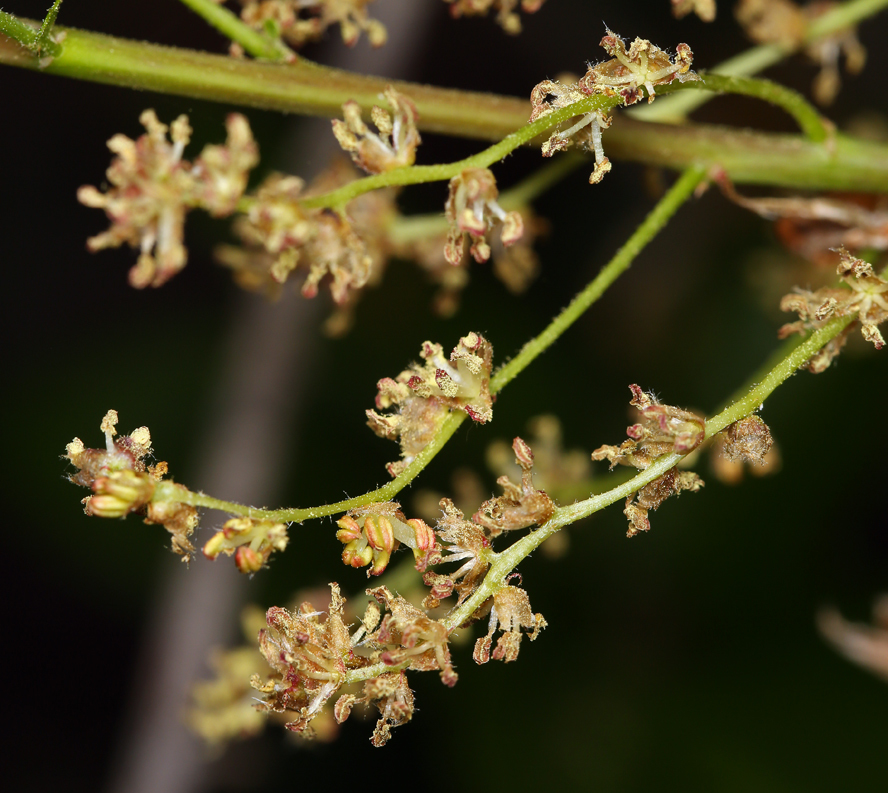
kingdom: Plantae
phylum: Tracheophyta
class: Magnoliopsida
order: Fagales
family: Fagaceae
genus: Quercus
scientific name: Quercus parvula
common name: Santa cruz island oak
